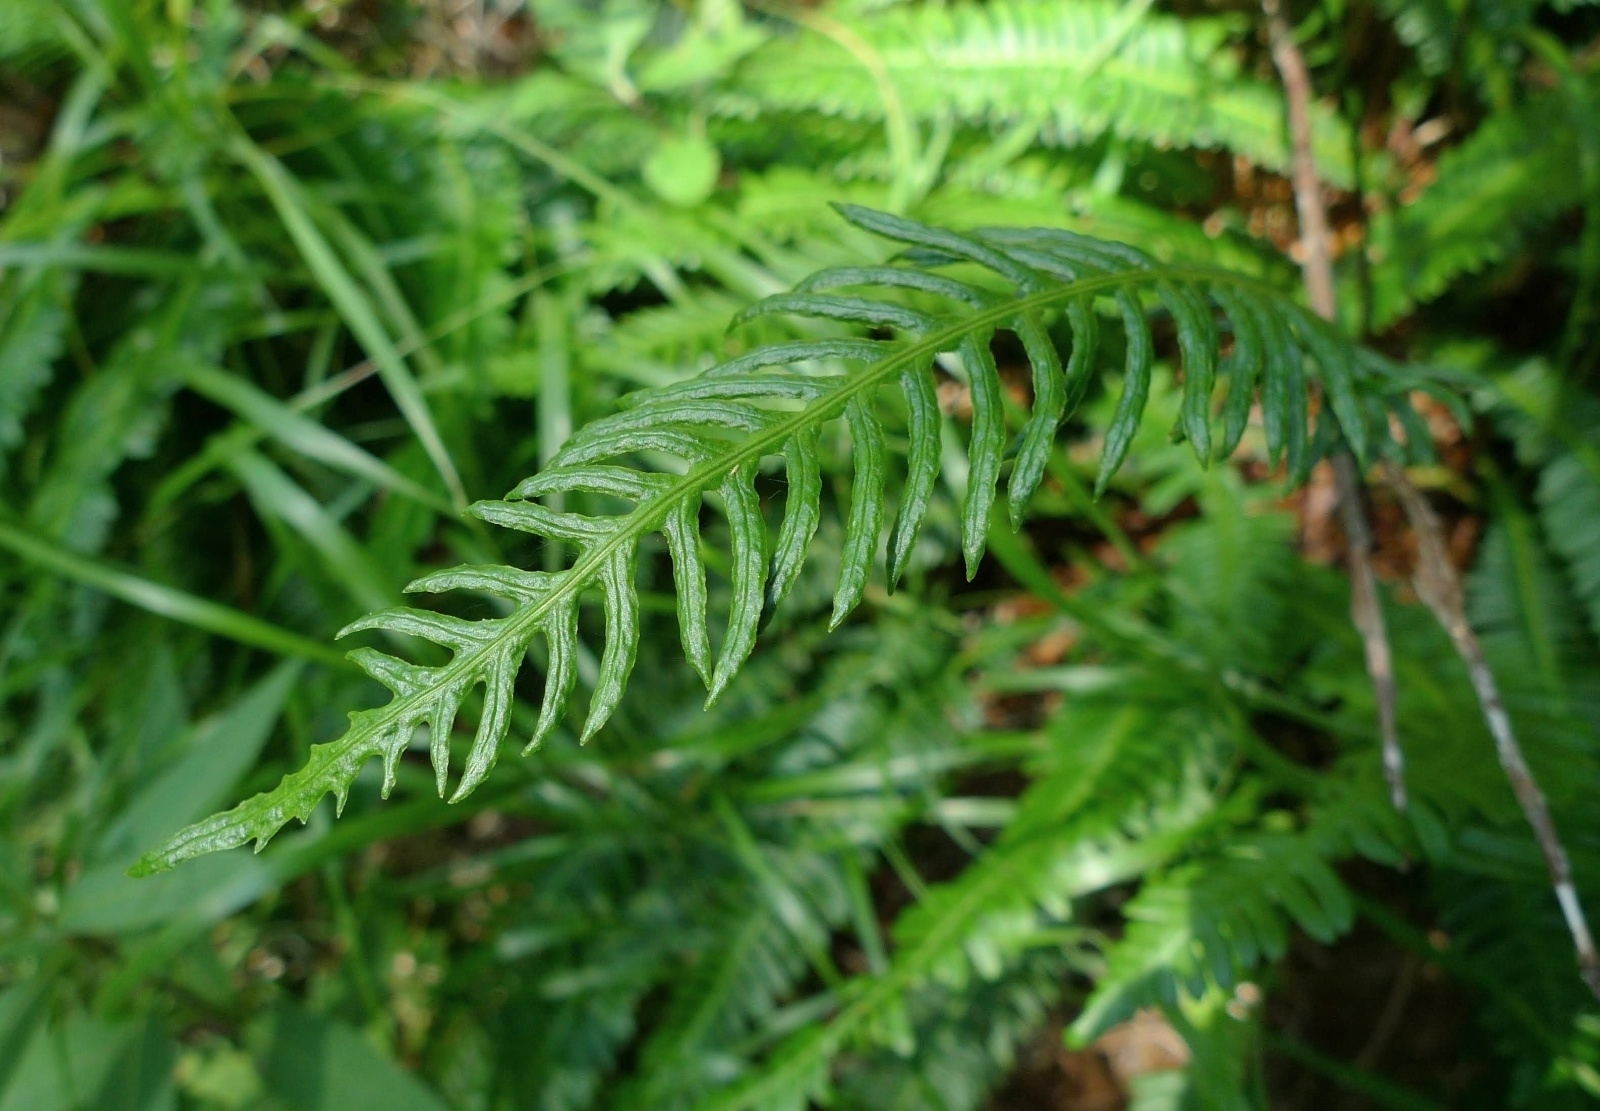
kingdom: Plantae
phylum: Tracheophyta
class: Polypodiopsida
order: Polypodiales
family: Blechnaceae
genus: Struthiopteris
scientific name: Struthiopteris spicant
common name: Deer fern
